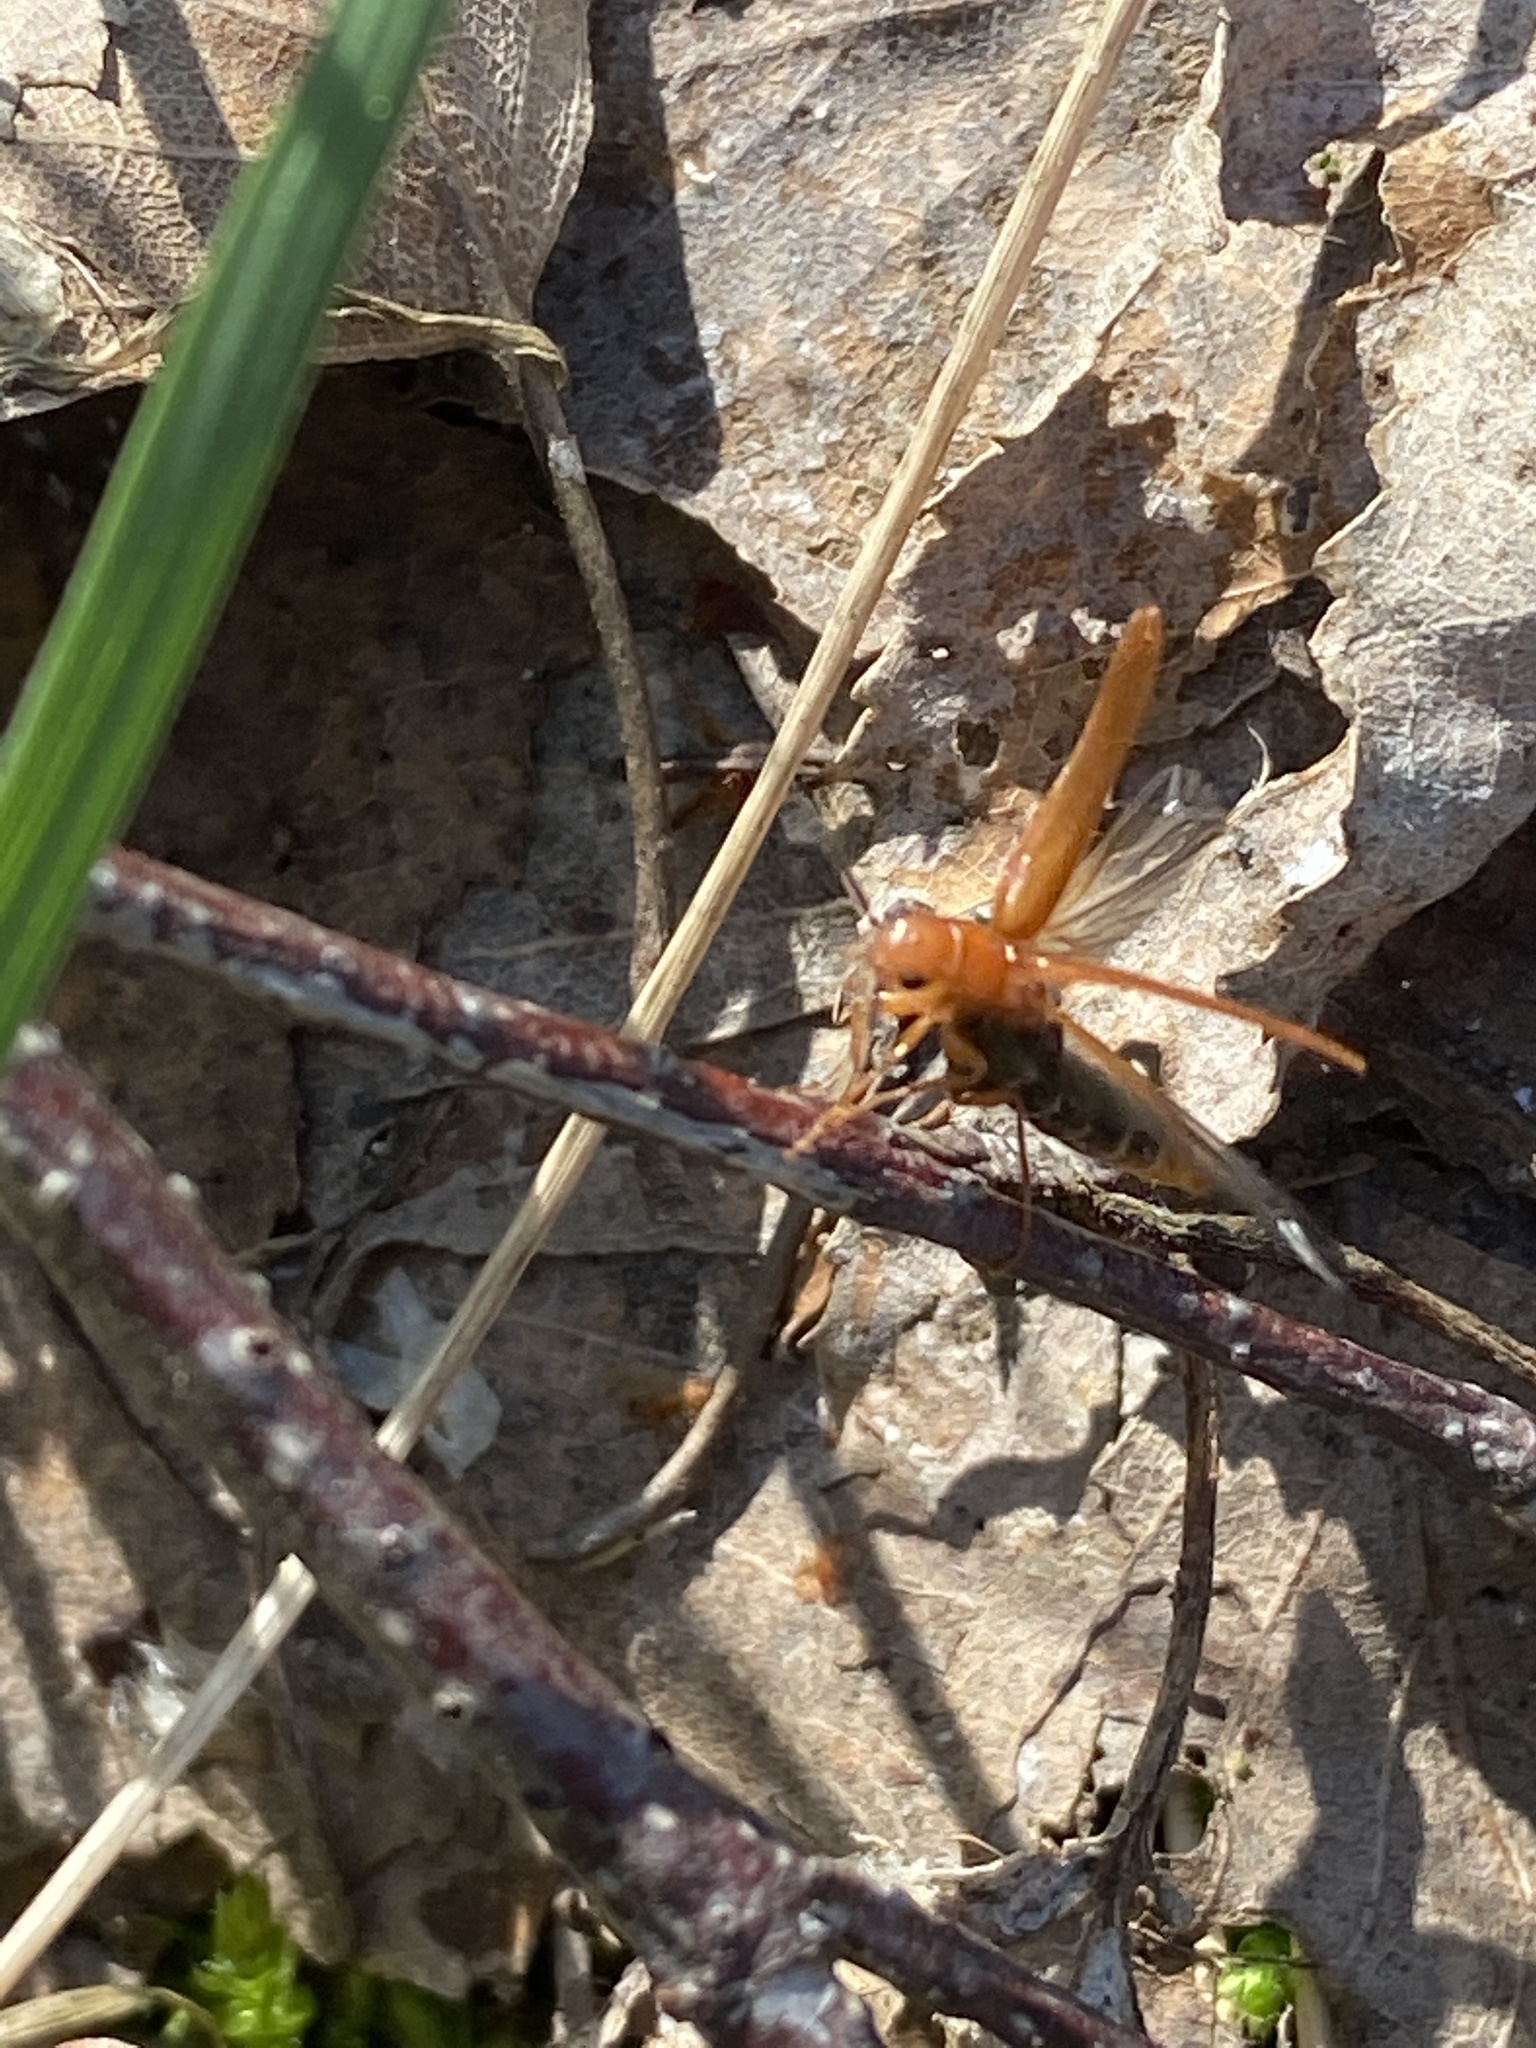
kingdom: Animalia
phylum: Arthropoda
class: Insecta
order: Coleoptera
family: Lymexylidae
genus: Hylecoetus
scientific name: Hylecoetus dermestoides
